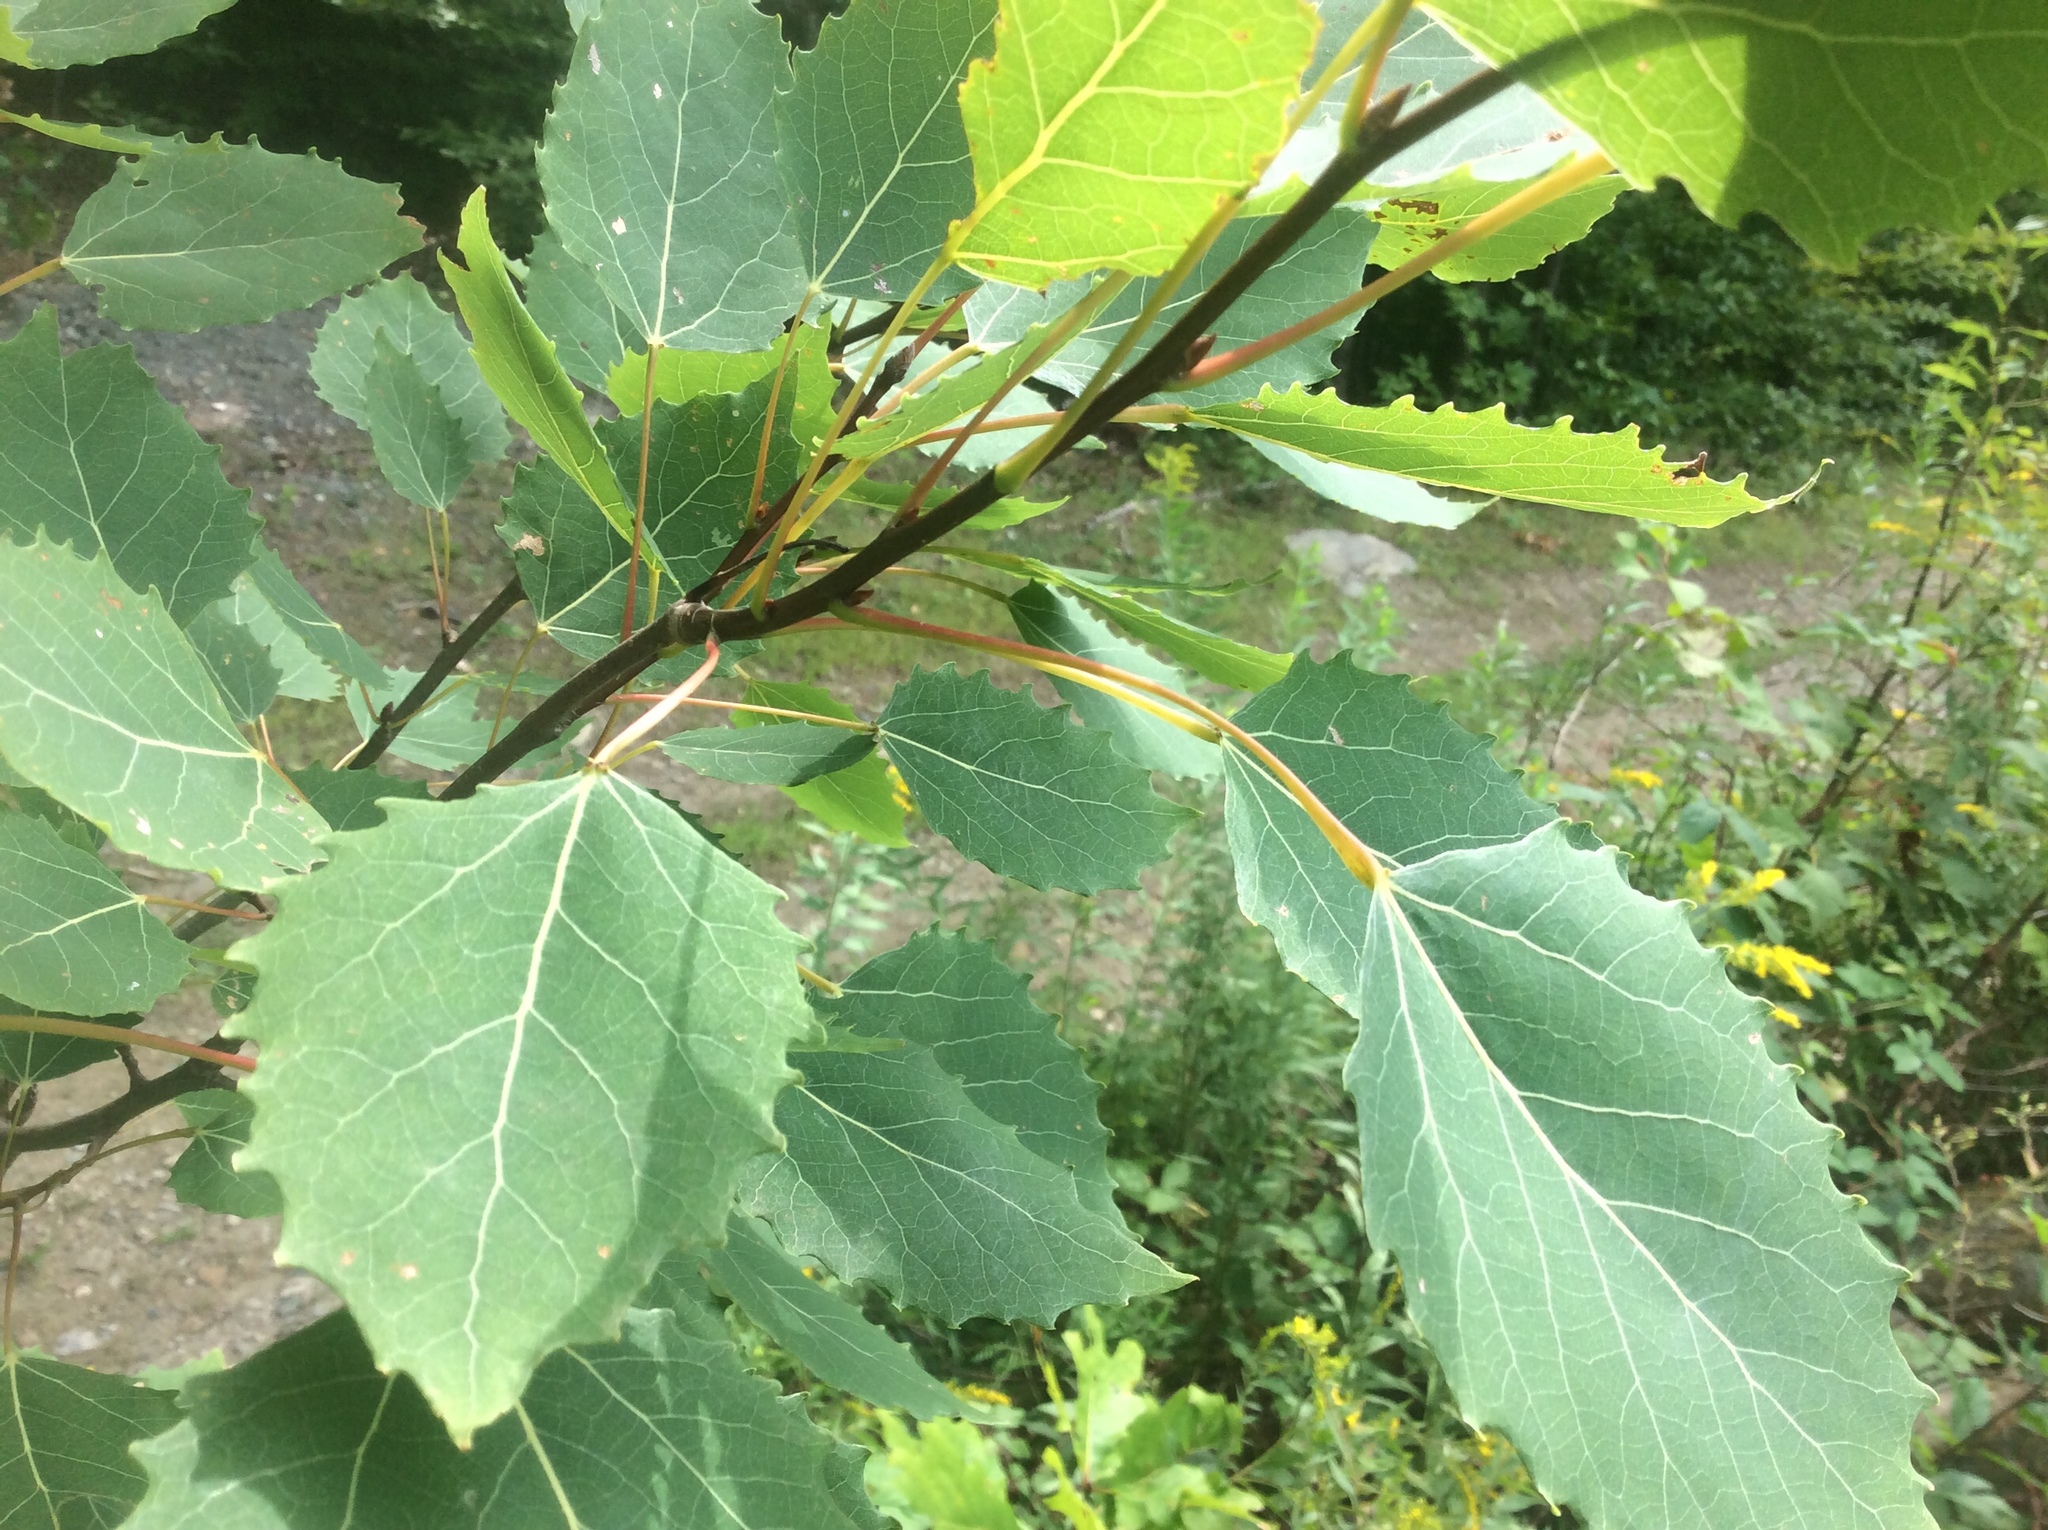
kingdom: Plantae
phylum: Tracheophyta
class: Magnoliopsida
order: Malpighiales
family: Salicaceae
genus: Populus
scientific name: Populus grandidentata
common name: Bigtooth aspen
